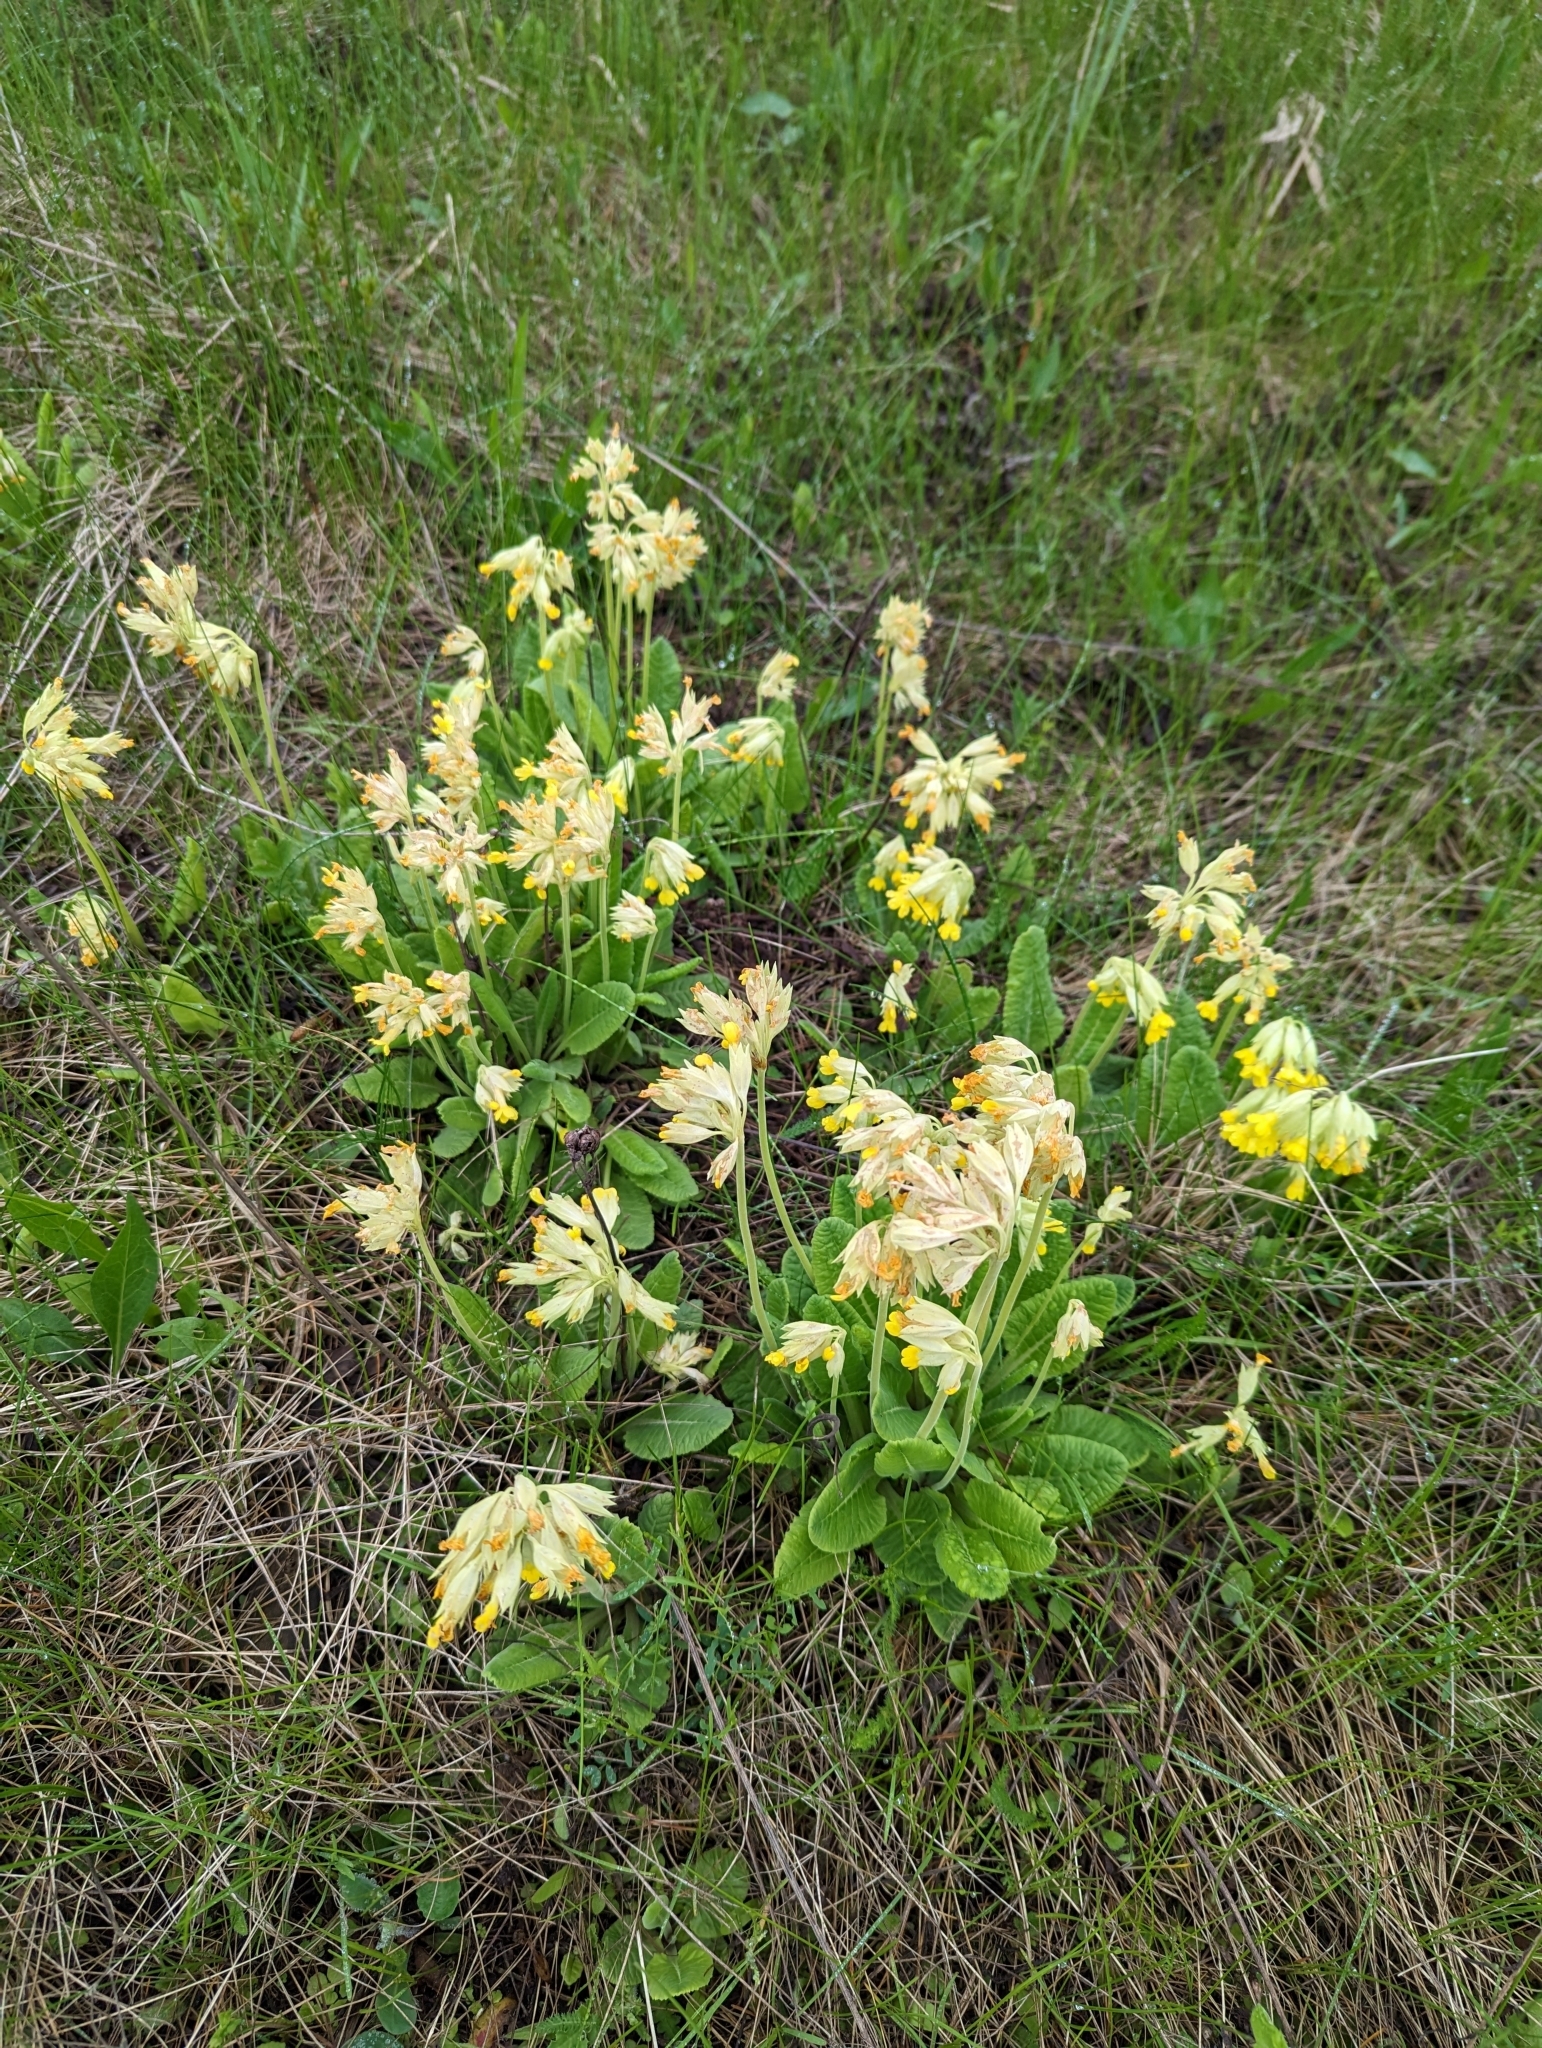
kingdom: Plantae
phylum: Tracheophyta
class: Magnoliopsida
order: Ericales
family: Primulaceae
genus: Primula
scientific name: Primula veris
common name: Cowslip
